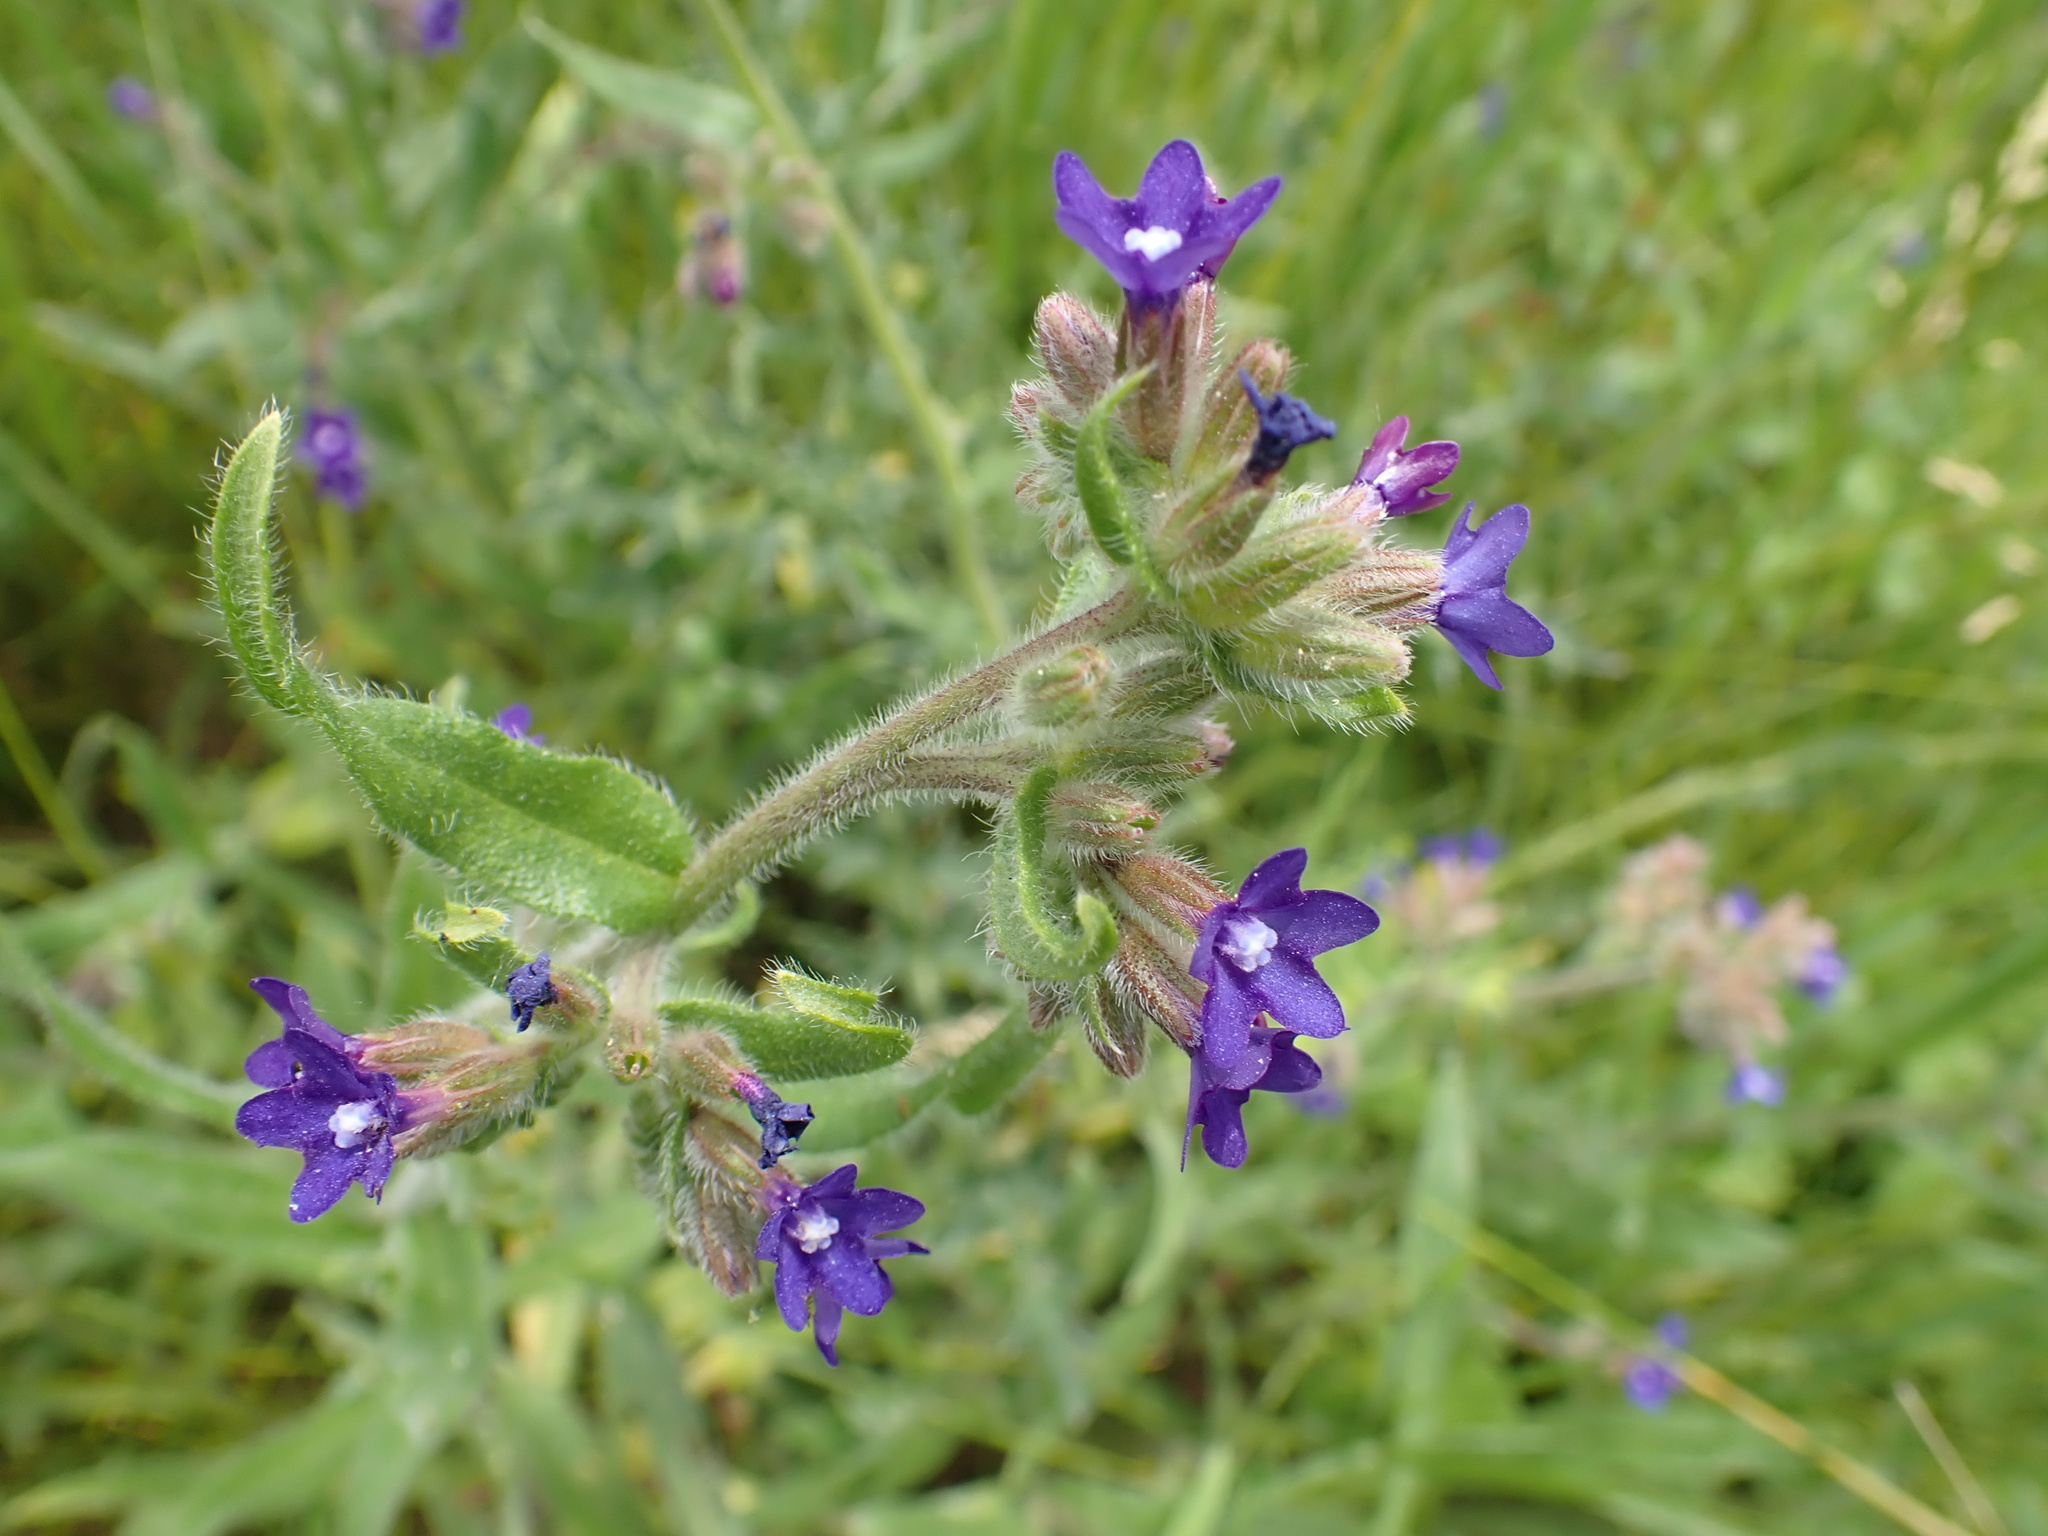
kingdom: Plantae
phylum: Tracheophyta
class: Magnoliopsida
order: Boraginales
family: Boraginaceae
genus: Anchusa
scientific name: Anchusa officinalis
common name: Alkanet
